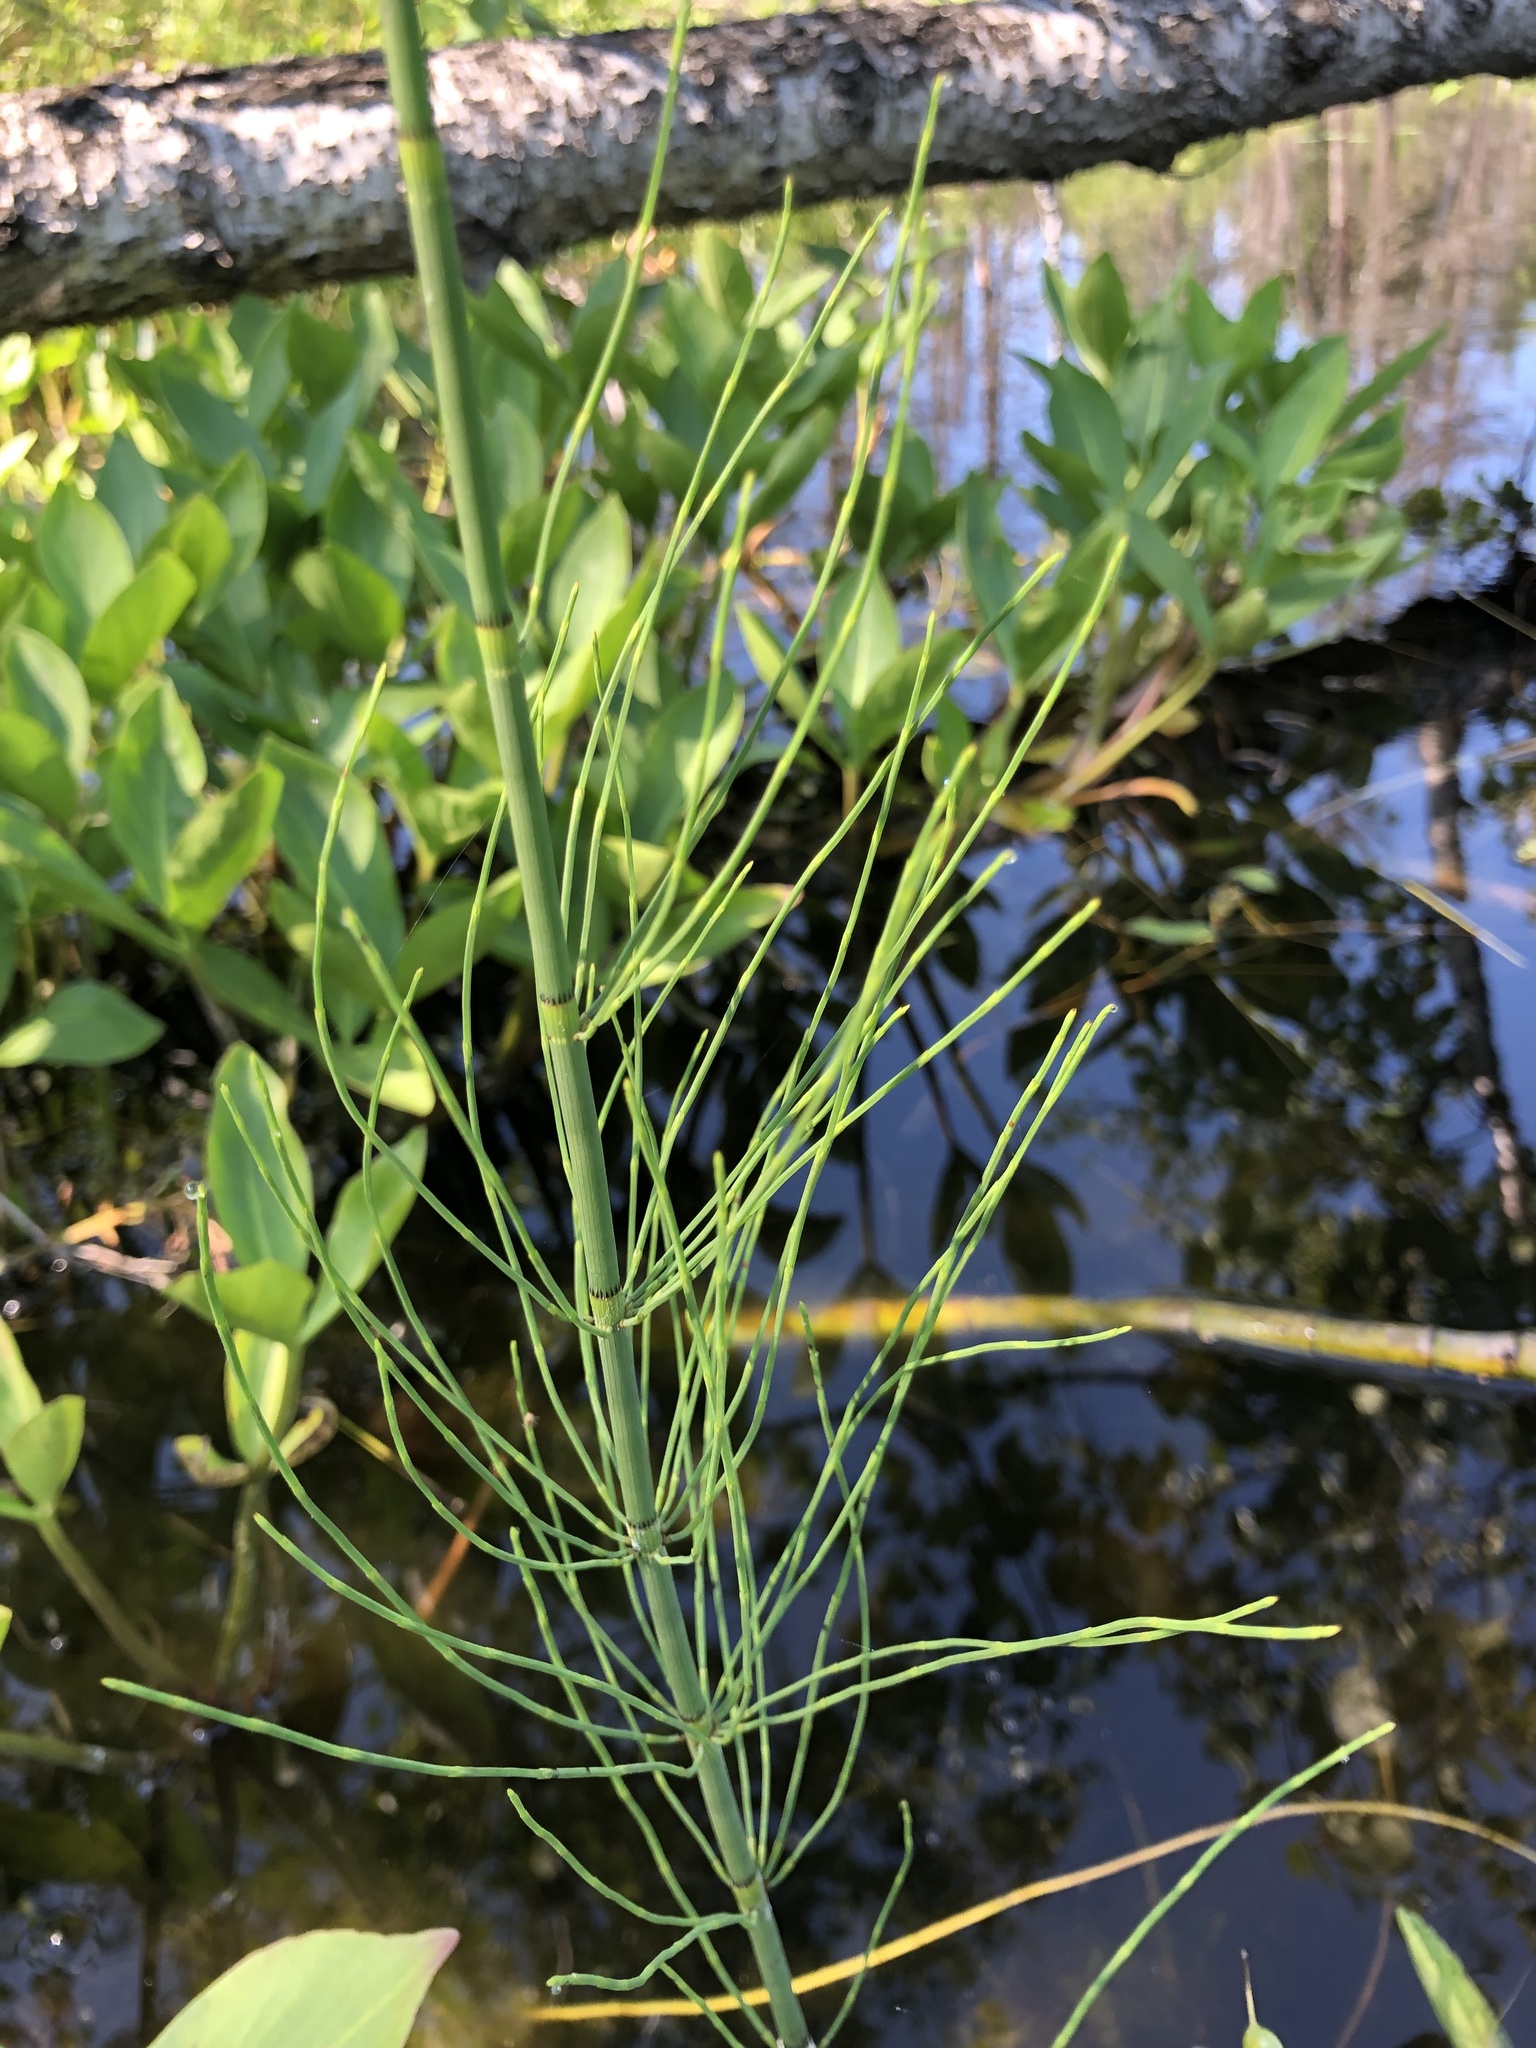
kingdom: Plantae
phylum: Tracheophyta
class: Polypodiopsida
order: Equisetales
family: Equisetaceae
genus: Equisetum
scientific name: Equisetum fluviatile
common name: Water horsetail
